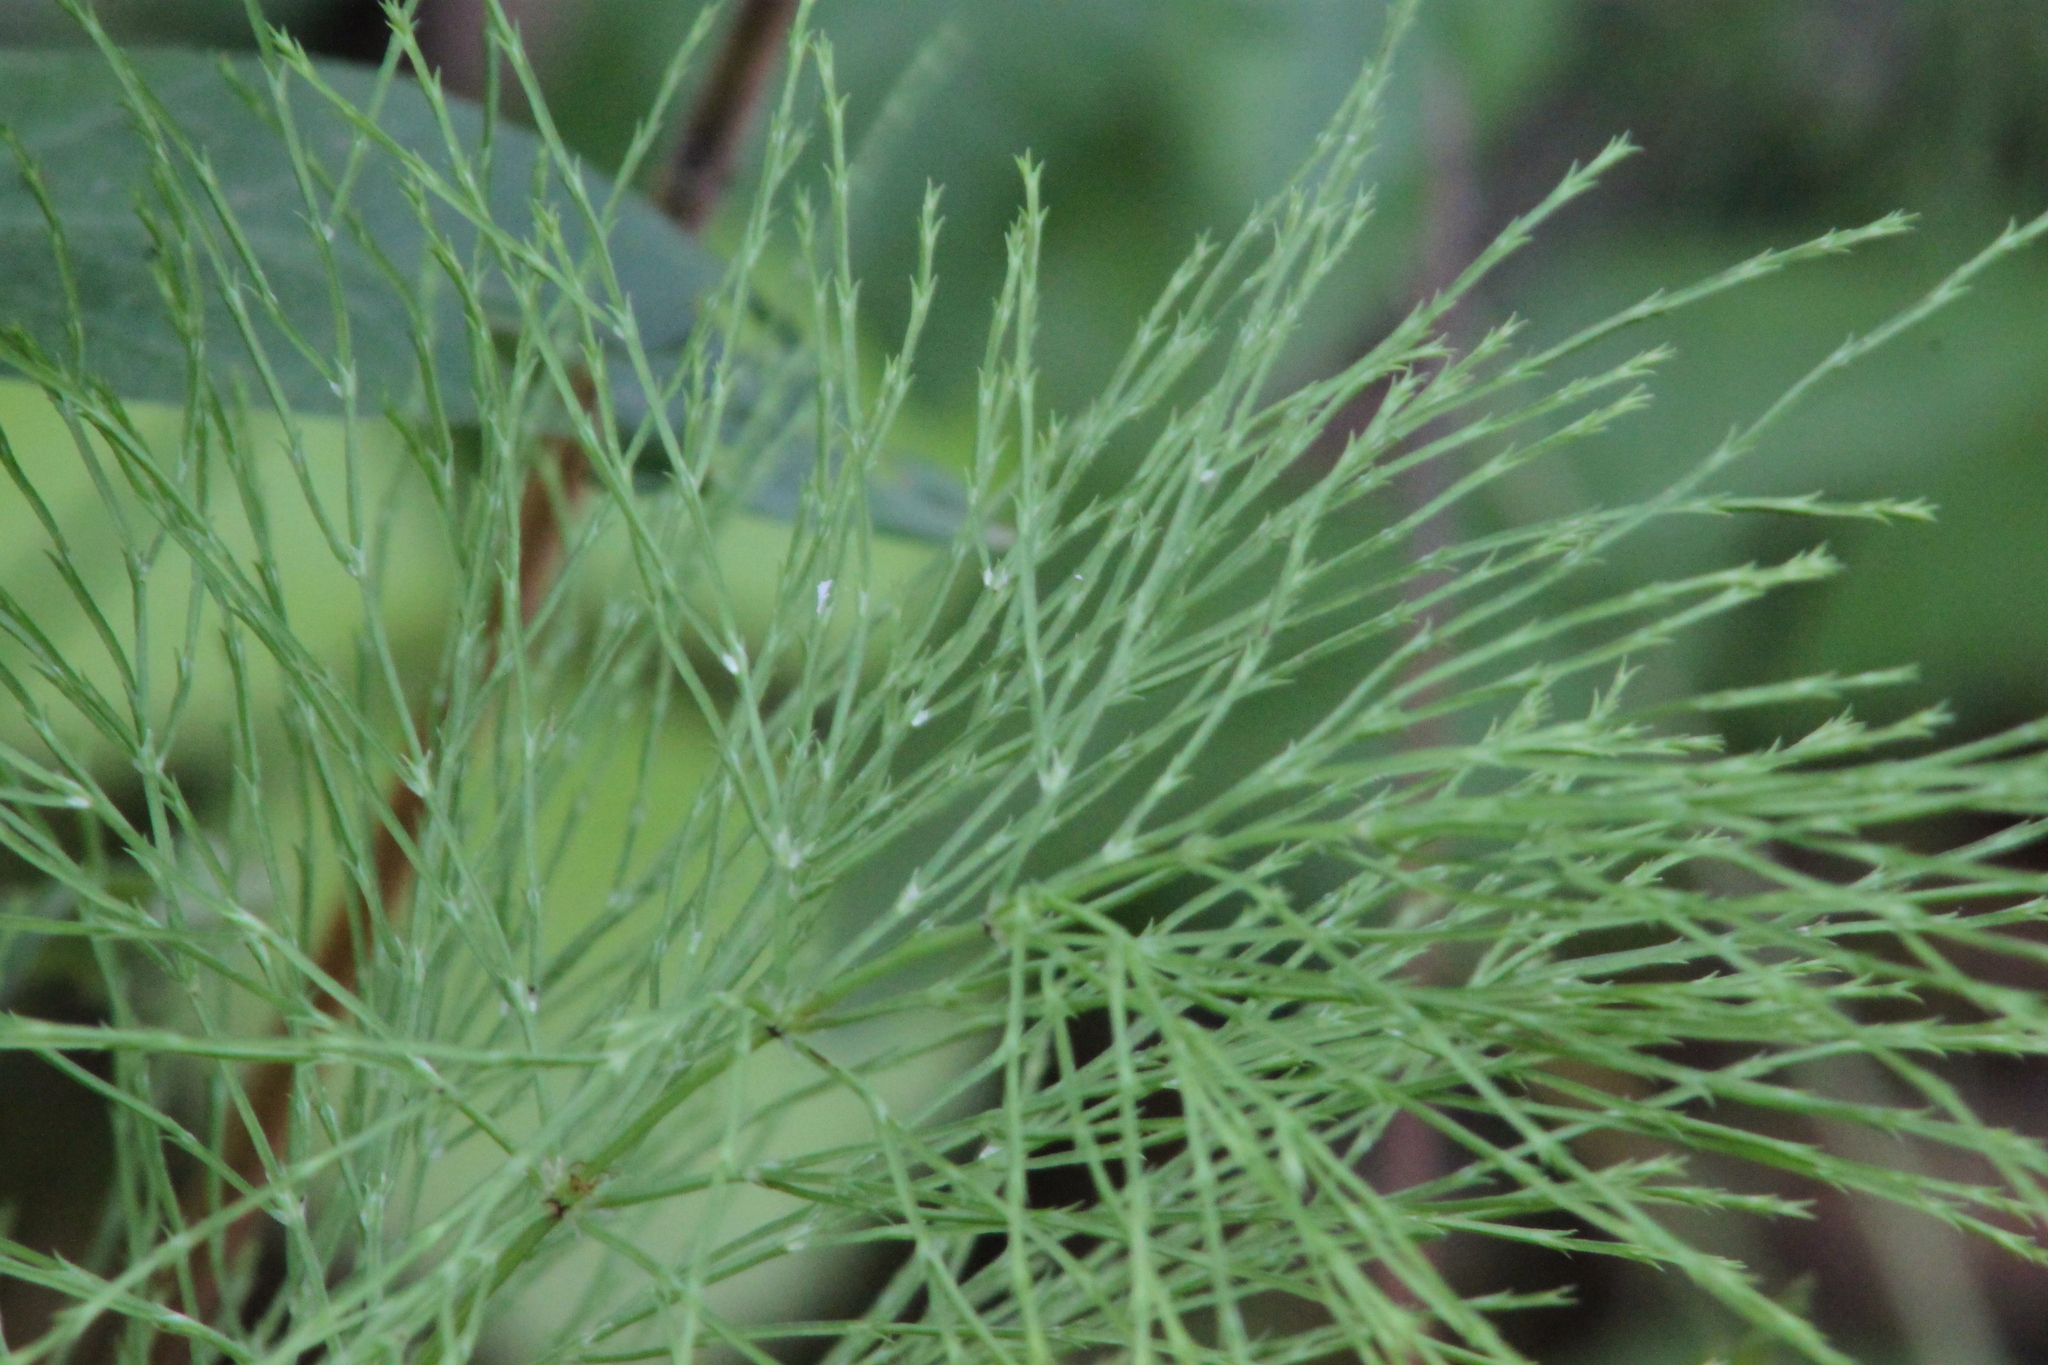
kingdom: Plantae
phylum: Tracheophyta
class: Polypodiopsida
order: Equisetales
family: Equisetaceae
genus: Equisetum
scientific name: Equisetum sylvaticum
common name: Wood horsetail
